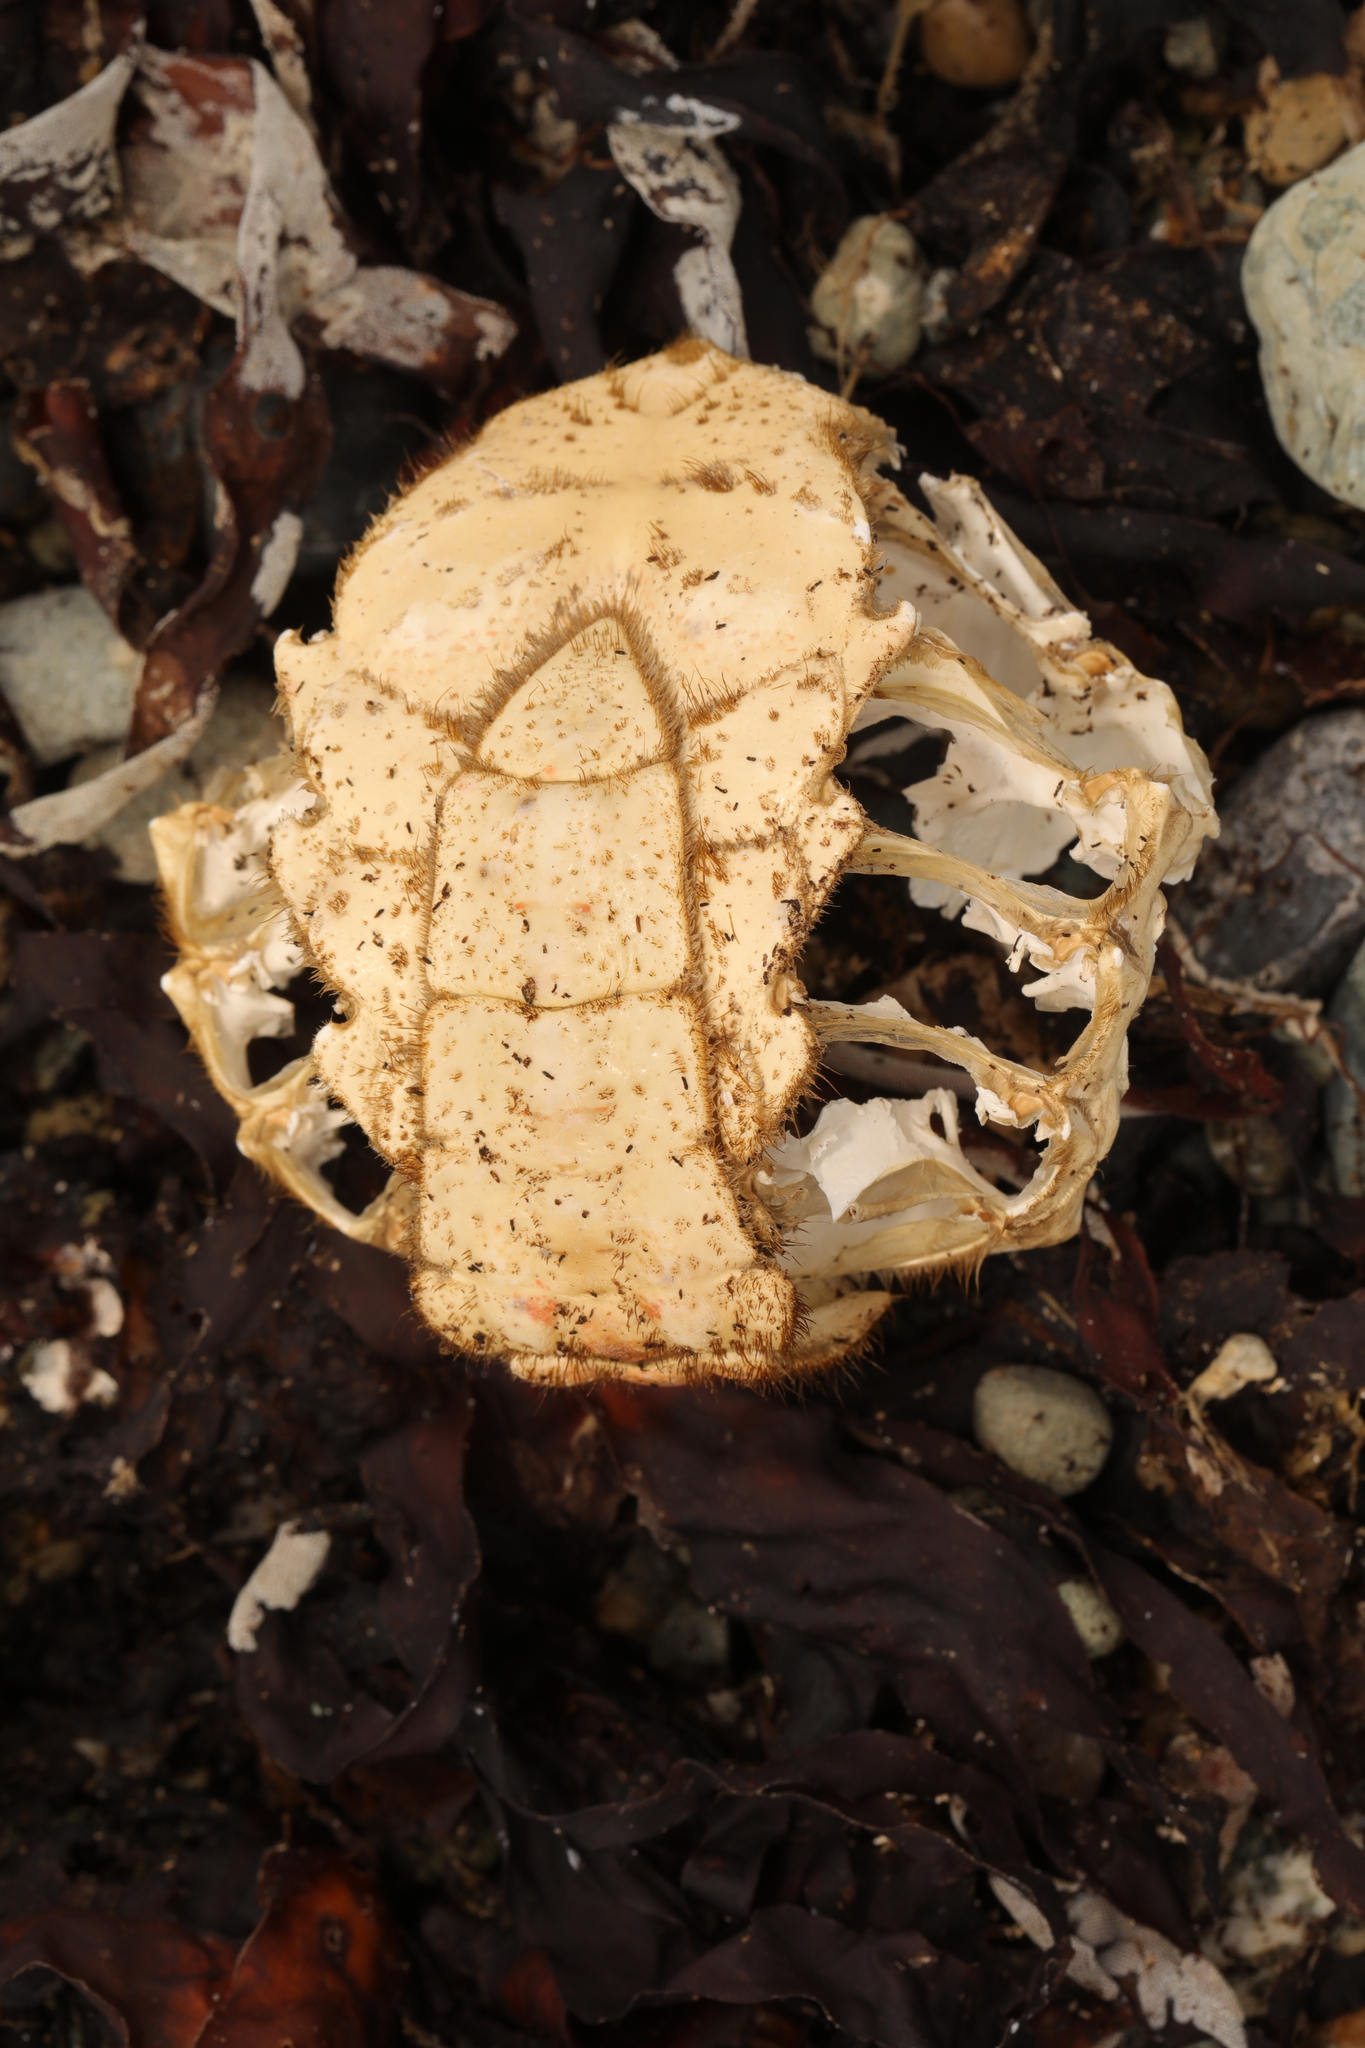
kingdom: Animalia
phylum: Arthropoda
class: Malacostraca
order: Decapoda
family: Majidae
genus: Maja
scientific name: Maja brachydactyla
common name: Common spider crab
